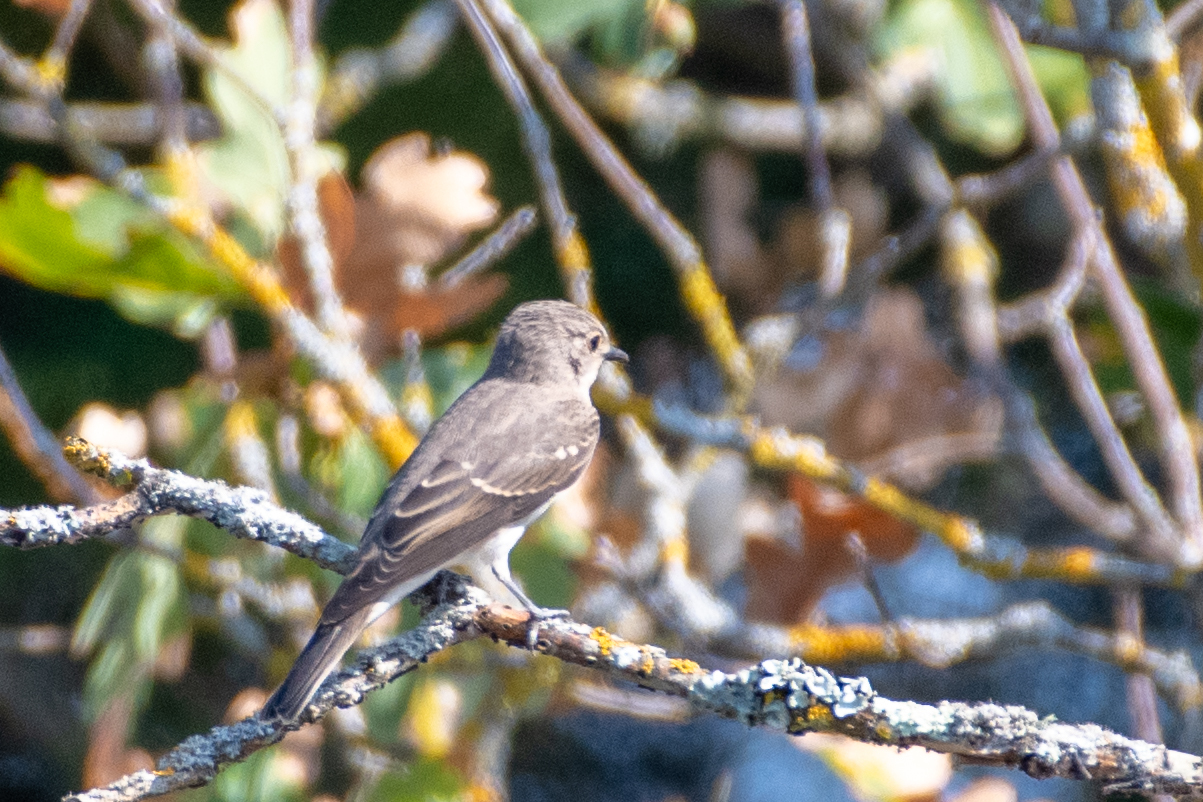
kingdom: Animalia
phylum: Chordata
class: Aves
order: Passeriformes
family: Muscicapidae
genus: Muscicapa
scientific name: Muscicapa striata
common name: Spotted flycatcher
